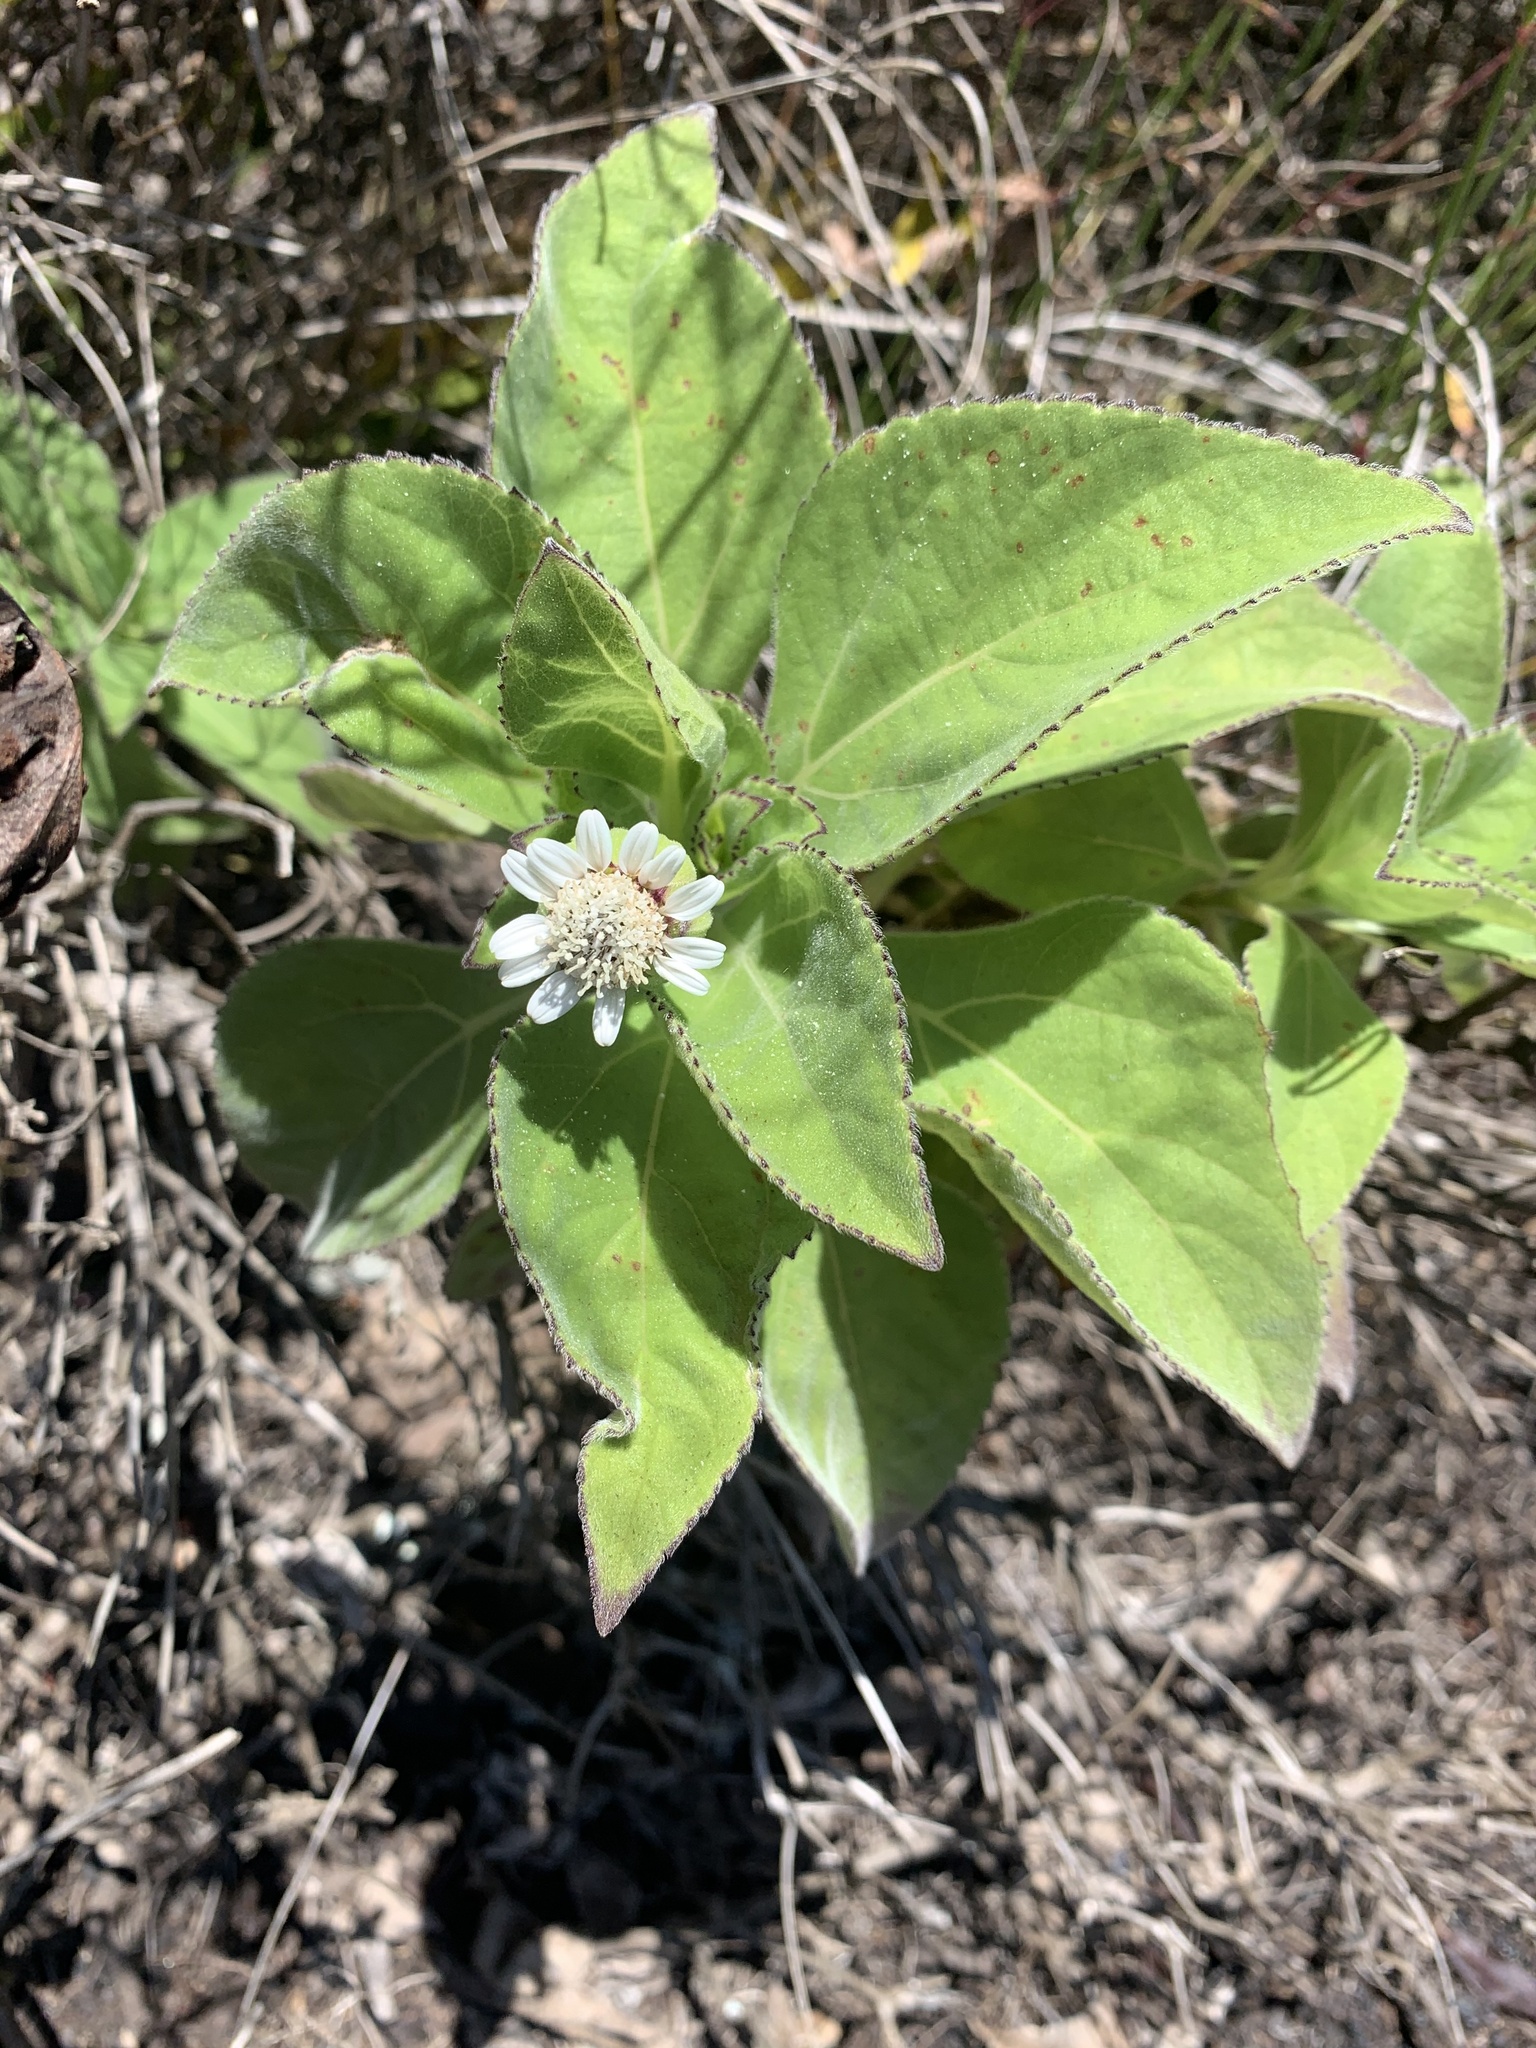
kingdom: Plantae
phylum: Tracheophyta
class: Magnoliopsida
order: Asterales
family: Asteraceae
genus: Scalesia
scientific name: Scalesia affinis
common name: Radiate-headed scalesia
